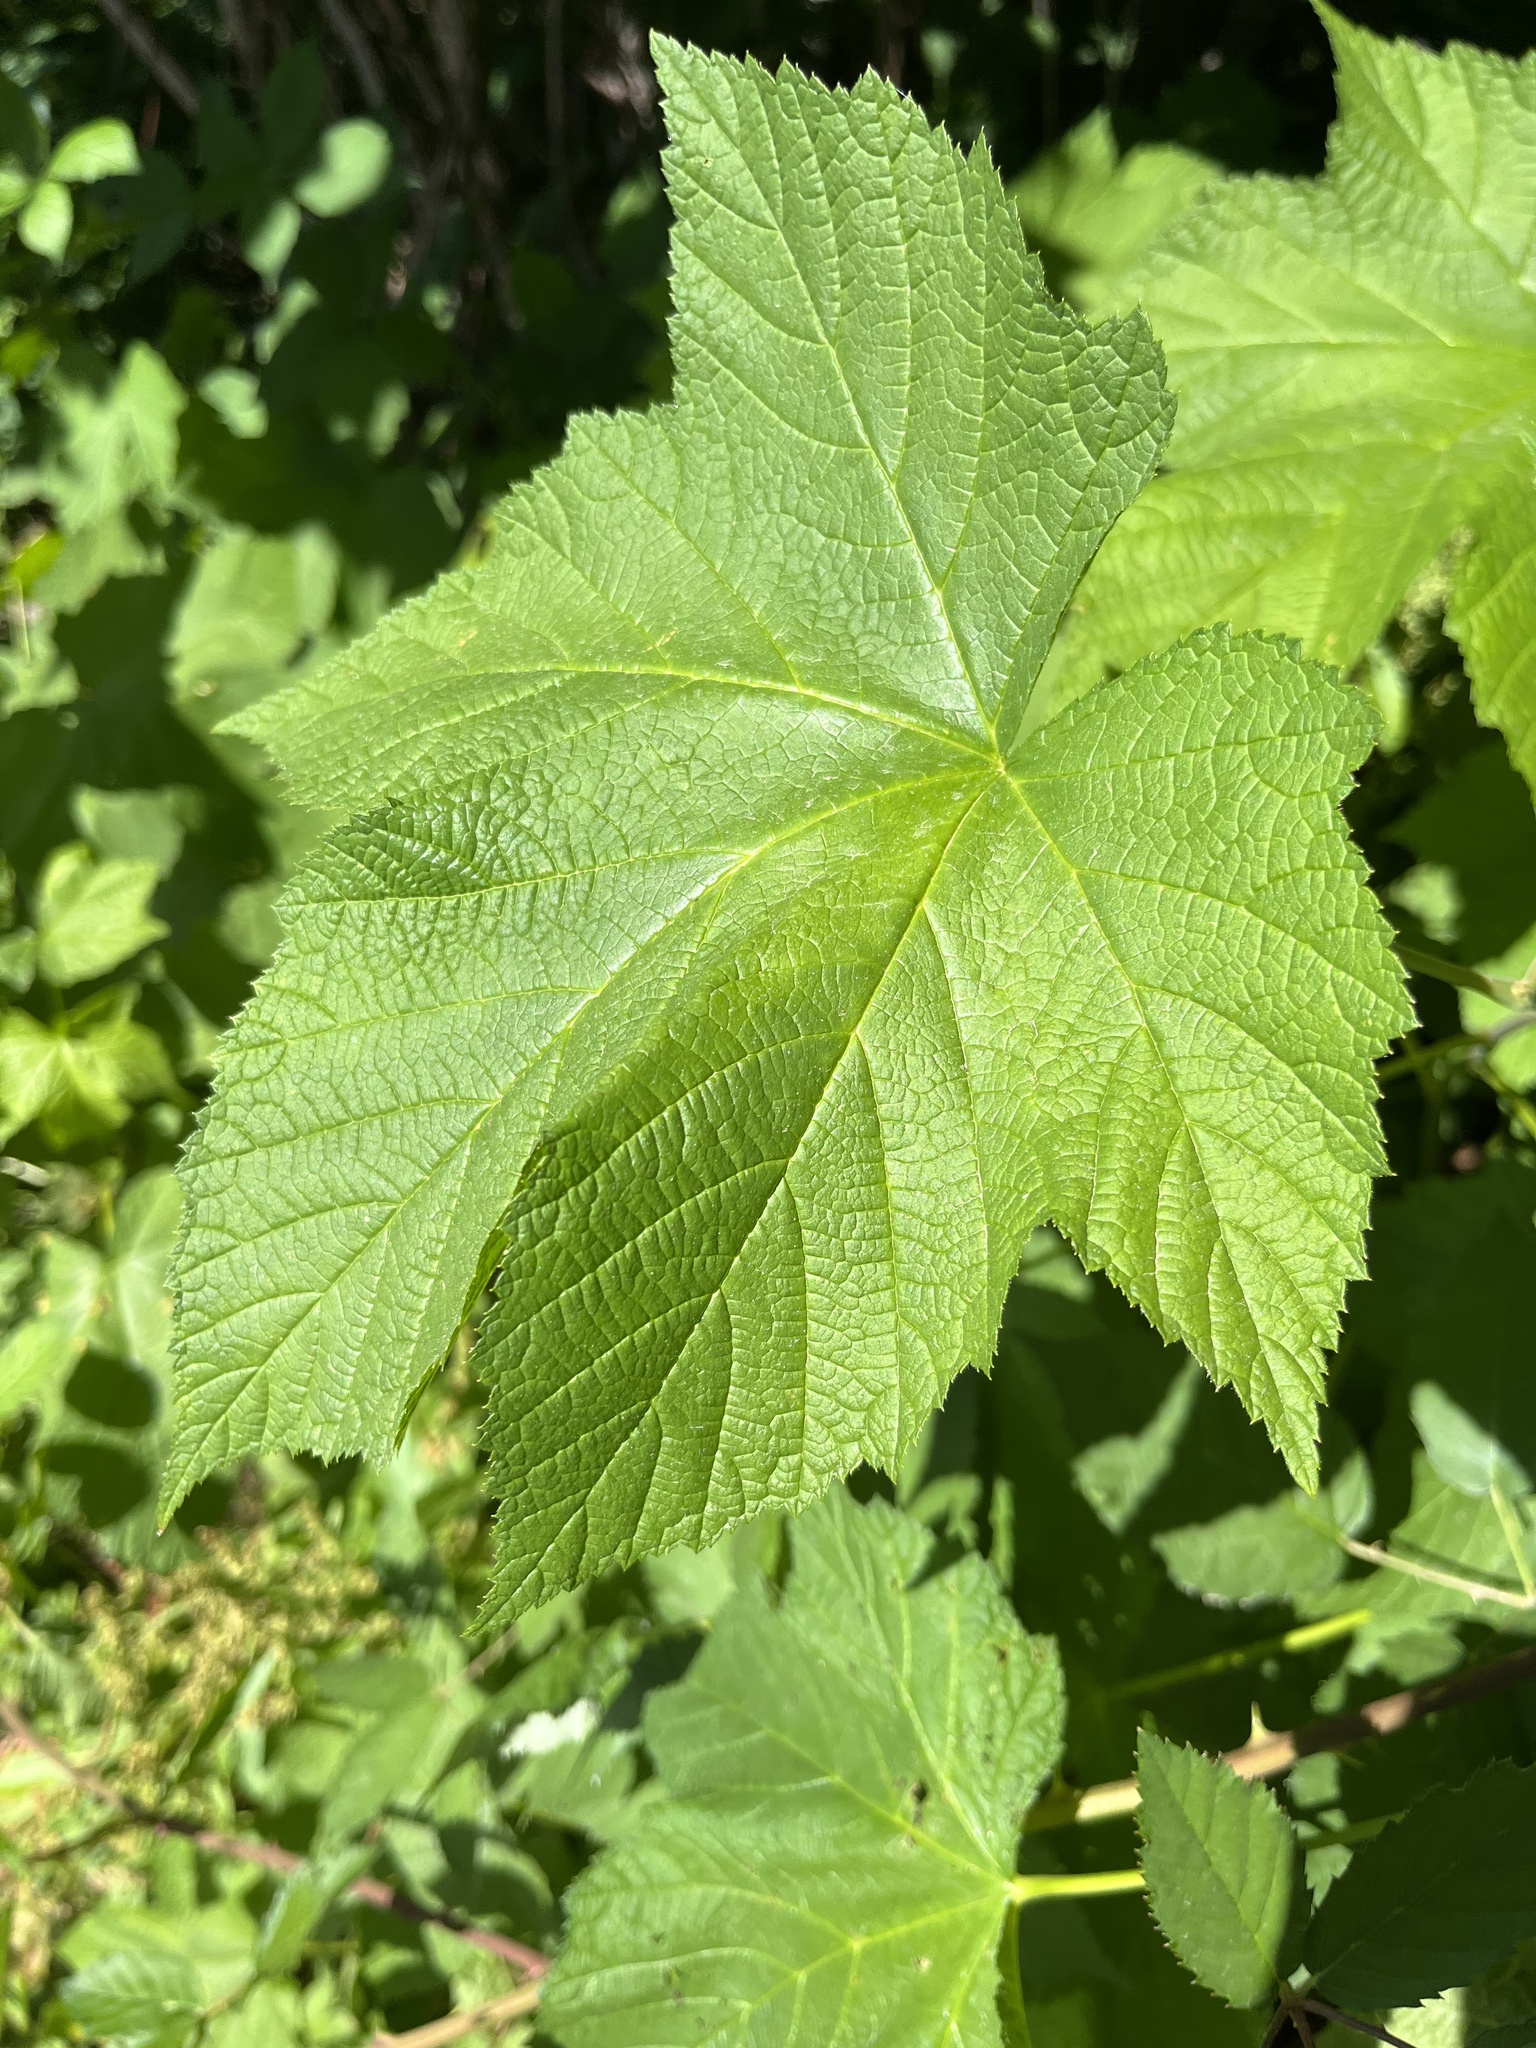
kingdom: Plantae
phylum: Tracheophyta
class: Magnoliopsida
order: Rosales
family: Rosaceae
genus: Rubus
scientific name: Rubus parviflorus
